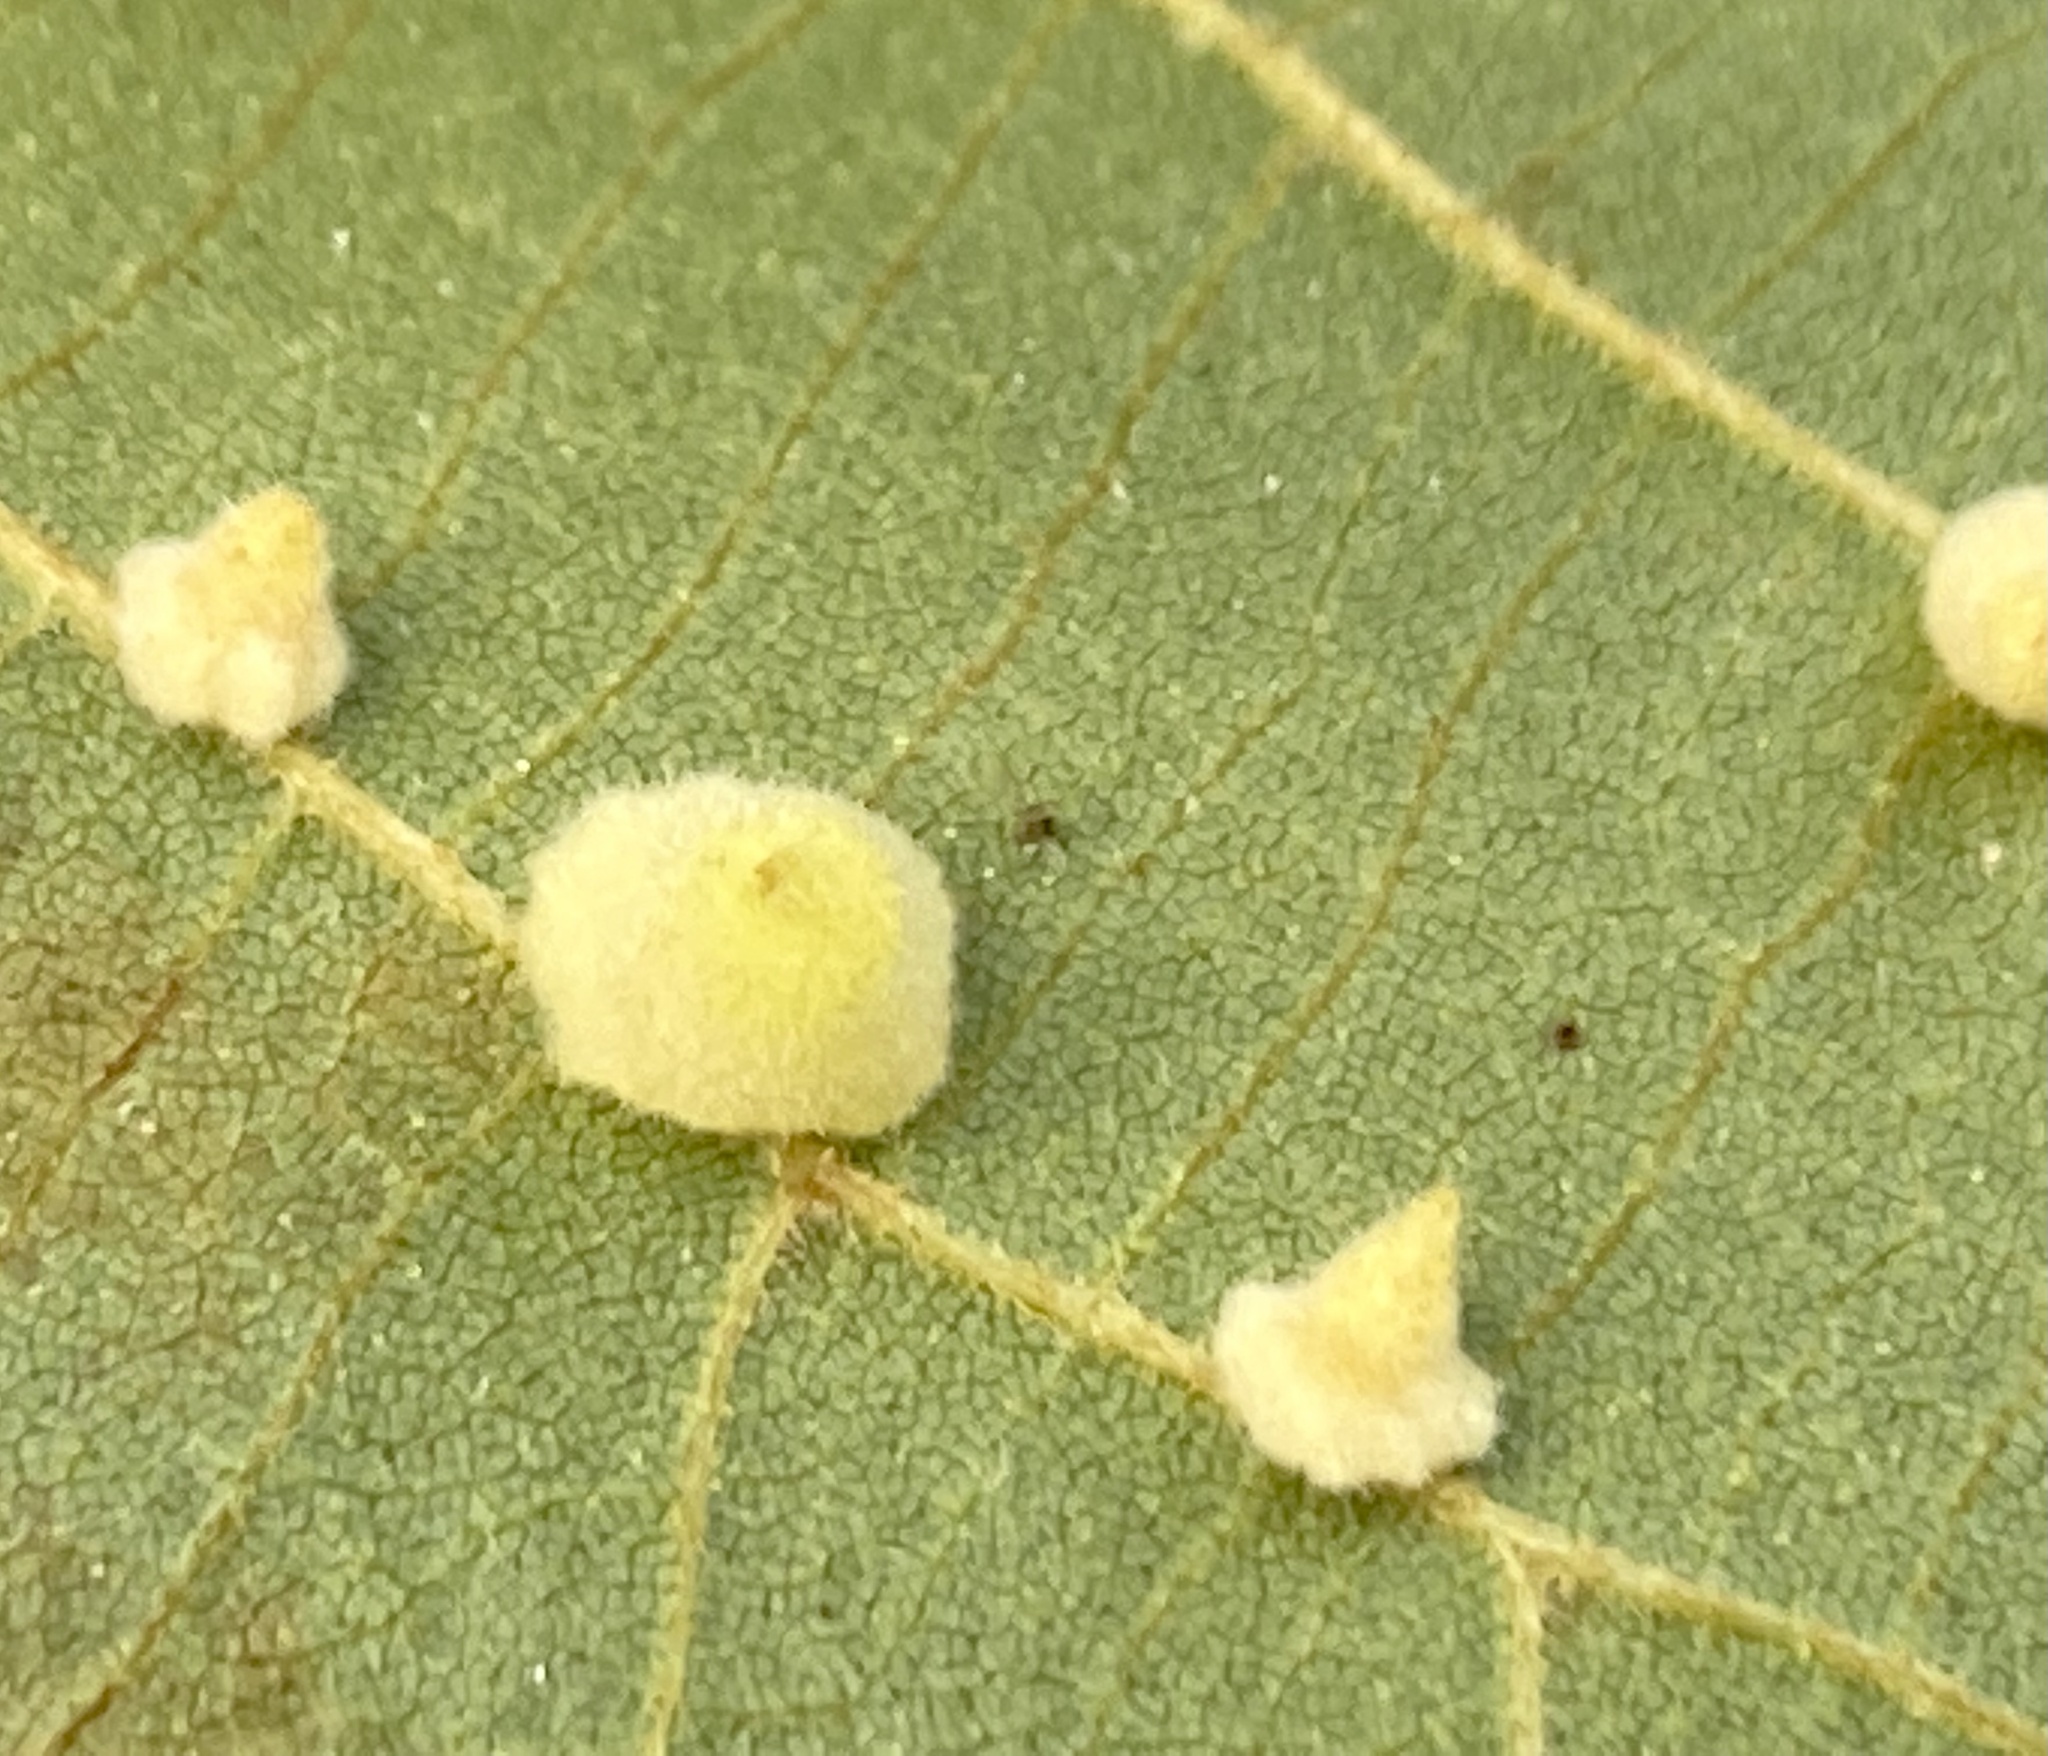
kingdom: Animalia
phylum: Arthropoda
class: Insecta
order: Diptera
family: Cecidomyiidae
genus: Caryomyia
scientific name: Caryomyia persicoides
